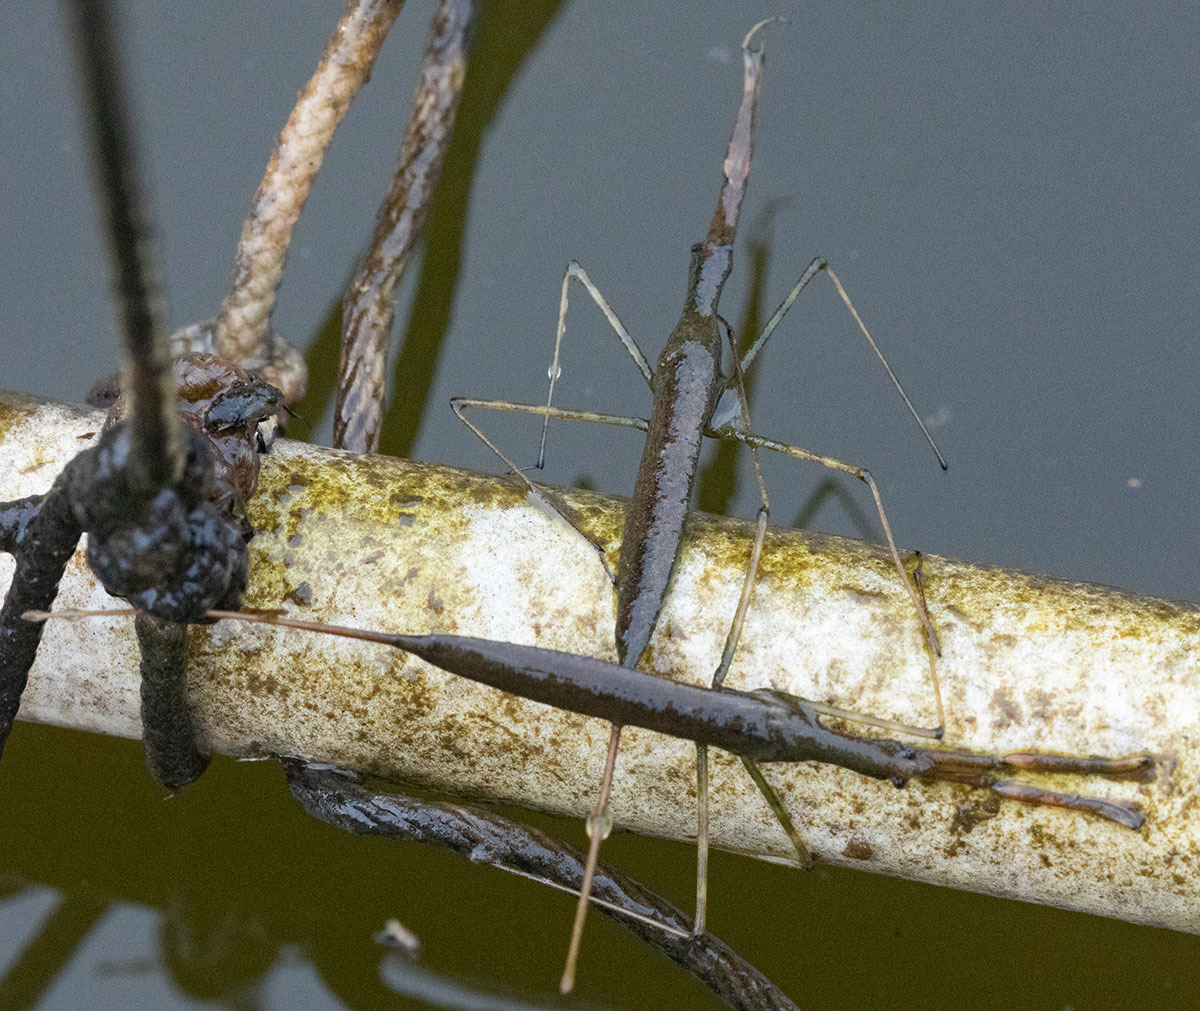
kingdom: Animalia
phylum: Arthropoda
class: Insecta
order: Hemiptera
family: Nepidae
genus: Ranatra
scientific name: Ranatra
